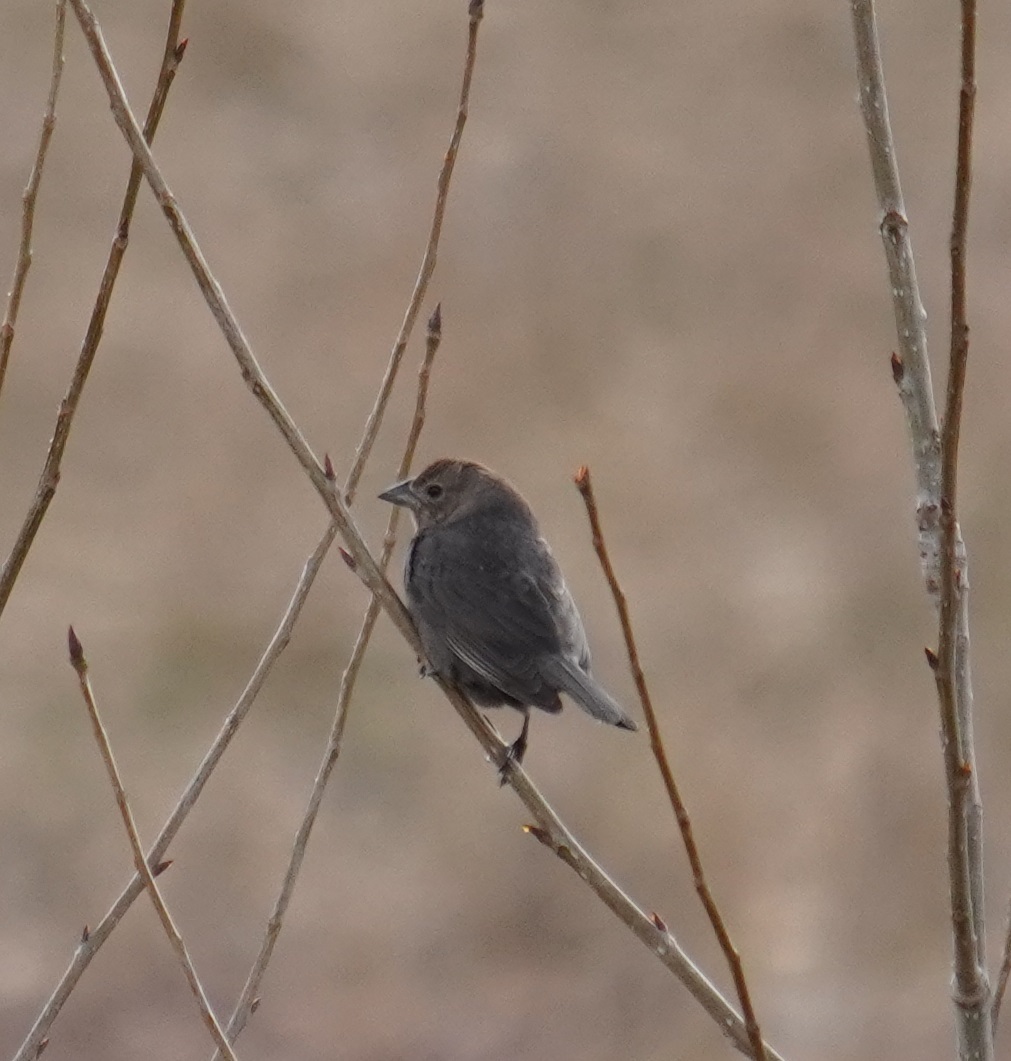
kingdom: Animalia
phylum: Chordata
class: Aves
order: Passeriformes
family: Icteridae
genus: Molothrus
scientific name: Molothrus ater
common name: Brown-headed cowbird
